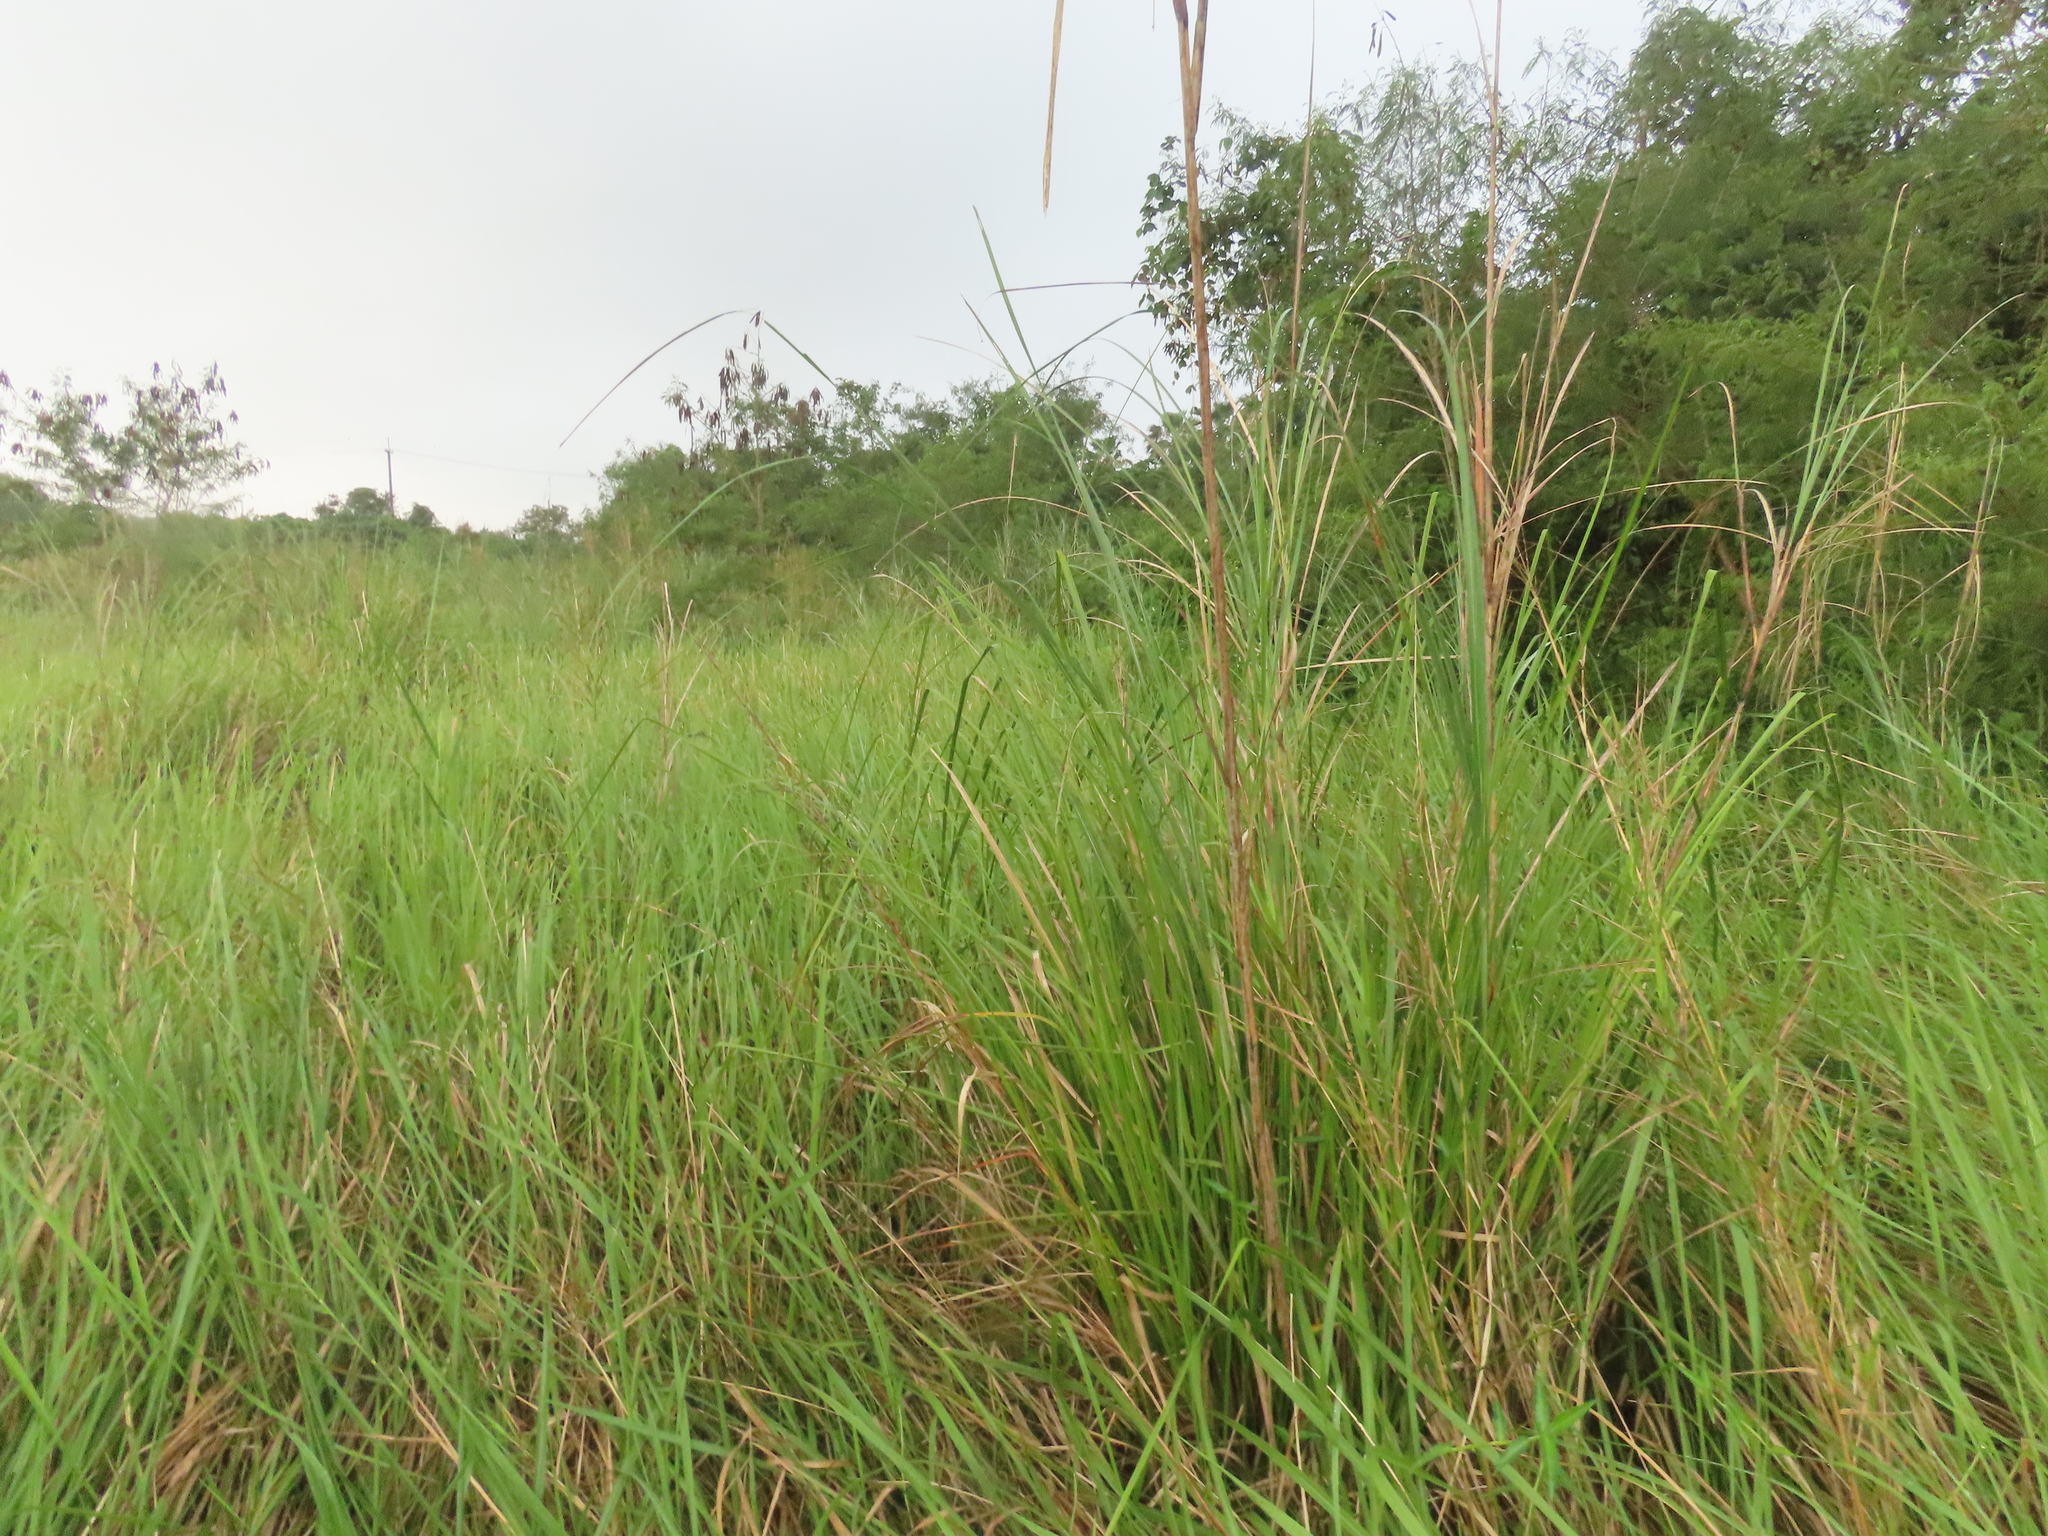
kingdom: Plantae
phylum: Tracheophyta
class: Liliopsida
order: Poales
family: Cyperaceae
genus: Cladium
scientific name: Cladium mariscus
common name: Great fen-sedge
